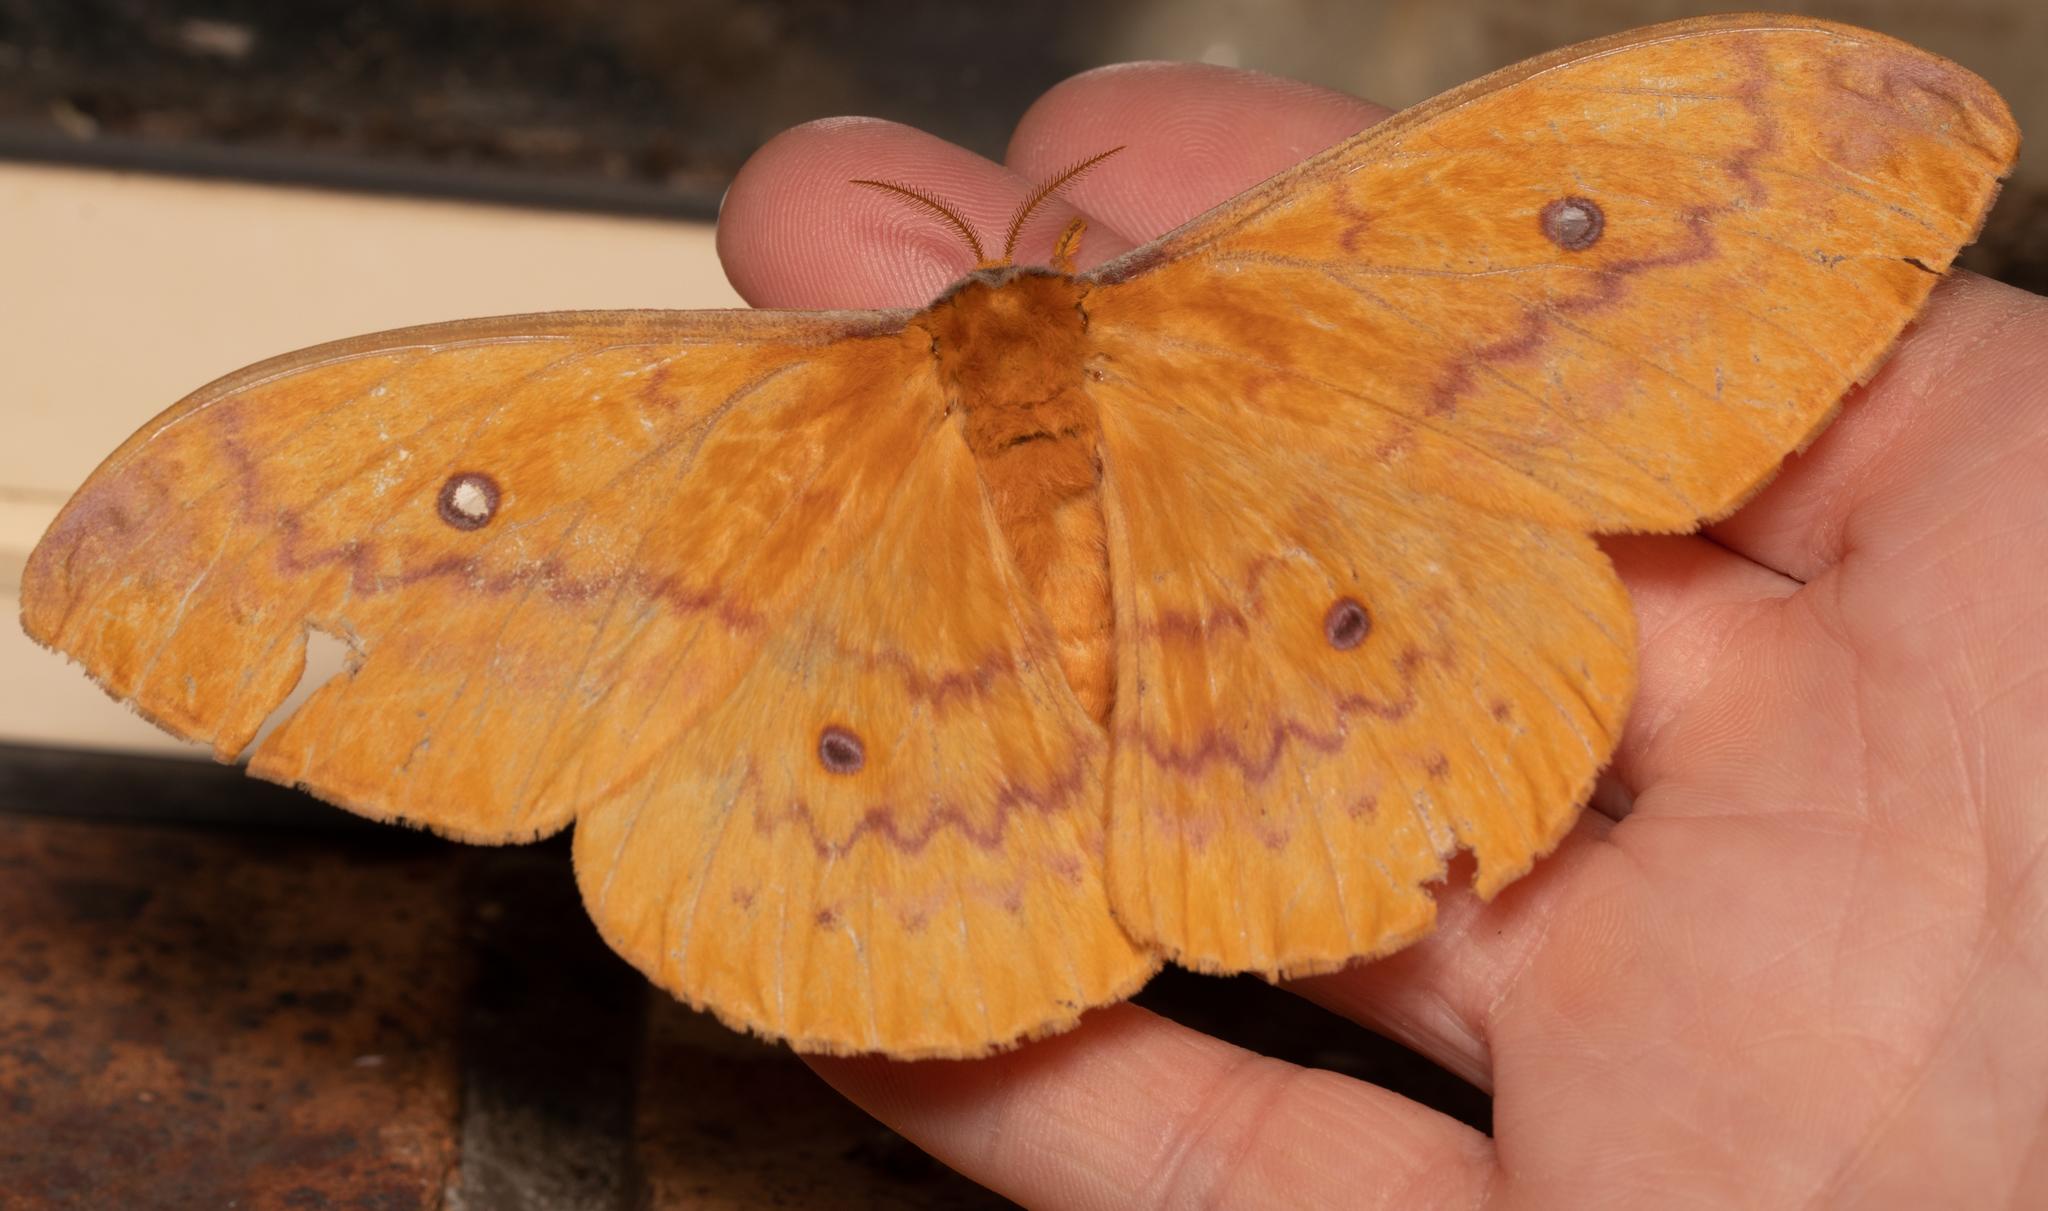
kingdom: Animalia
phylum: Arthropoda
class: Insecta
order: Lepidoptera
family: Saturniidae
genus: Syntherata
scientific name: Syntherata janetta
